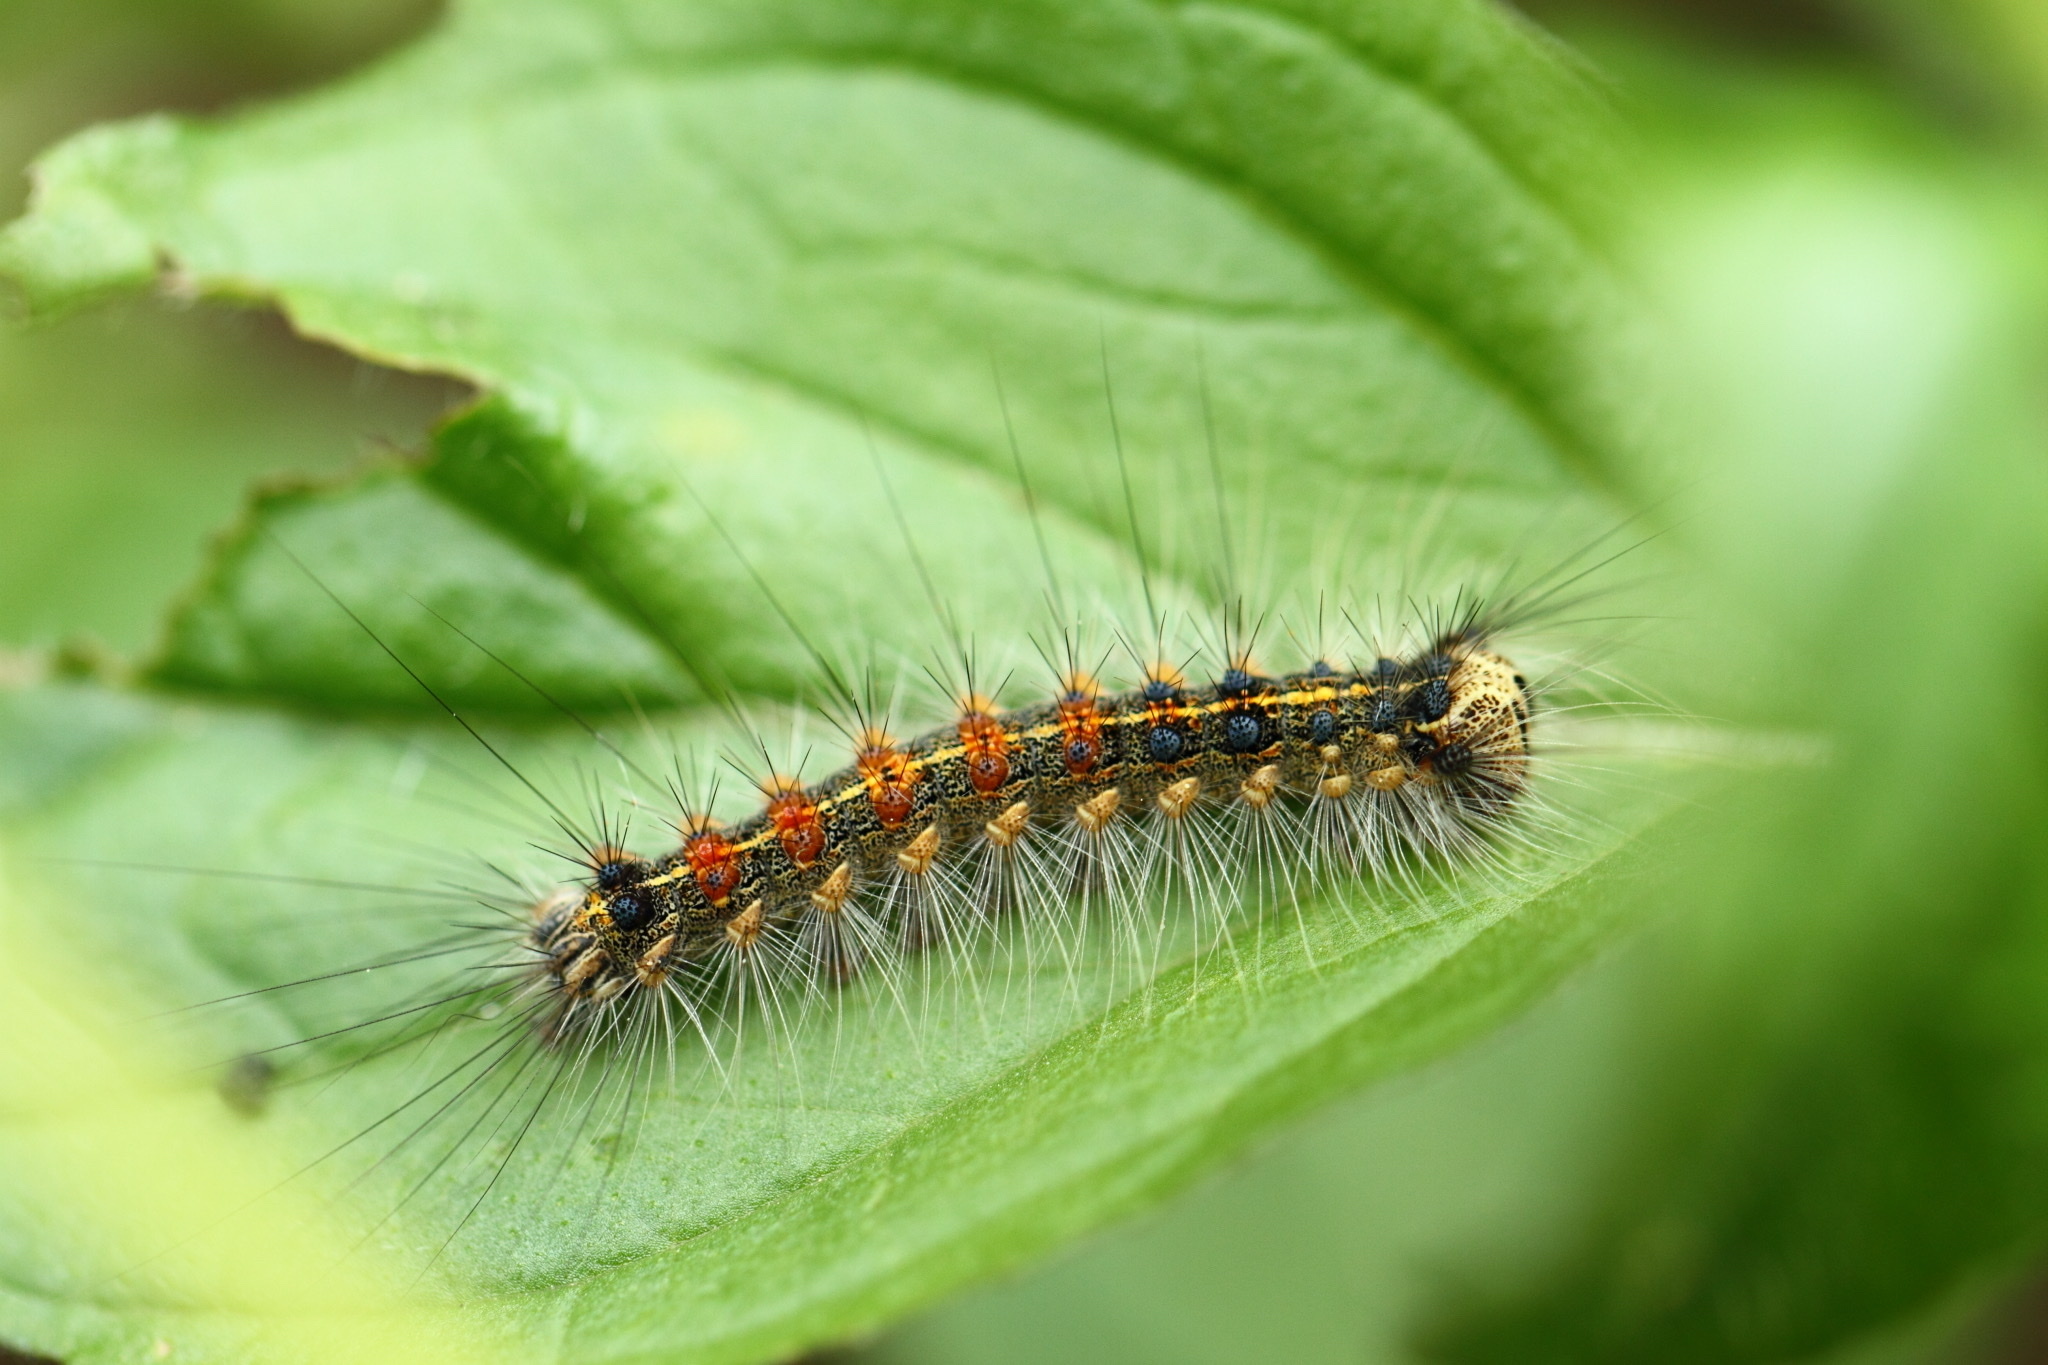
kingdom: Animalia
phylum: Arthropoda
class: Insecta
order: Lepidoptera
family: Erebidae
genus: Lymantria
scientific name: Lymantria dispar
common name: Gypsy moth
